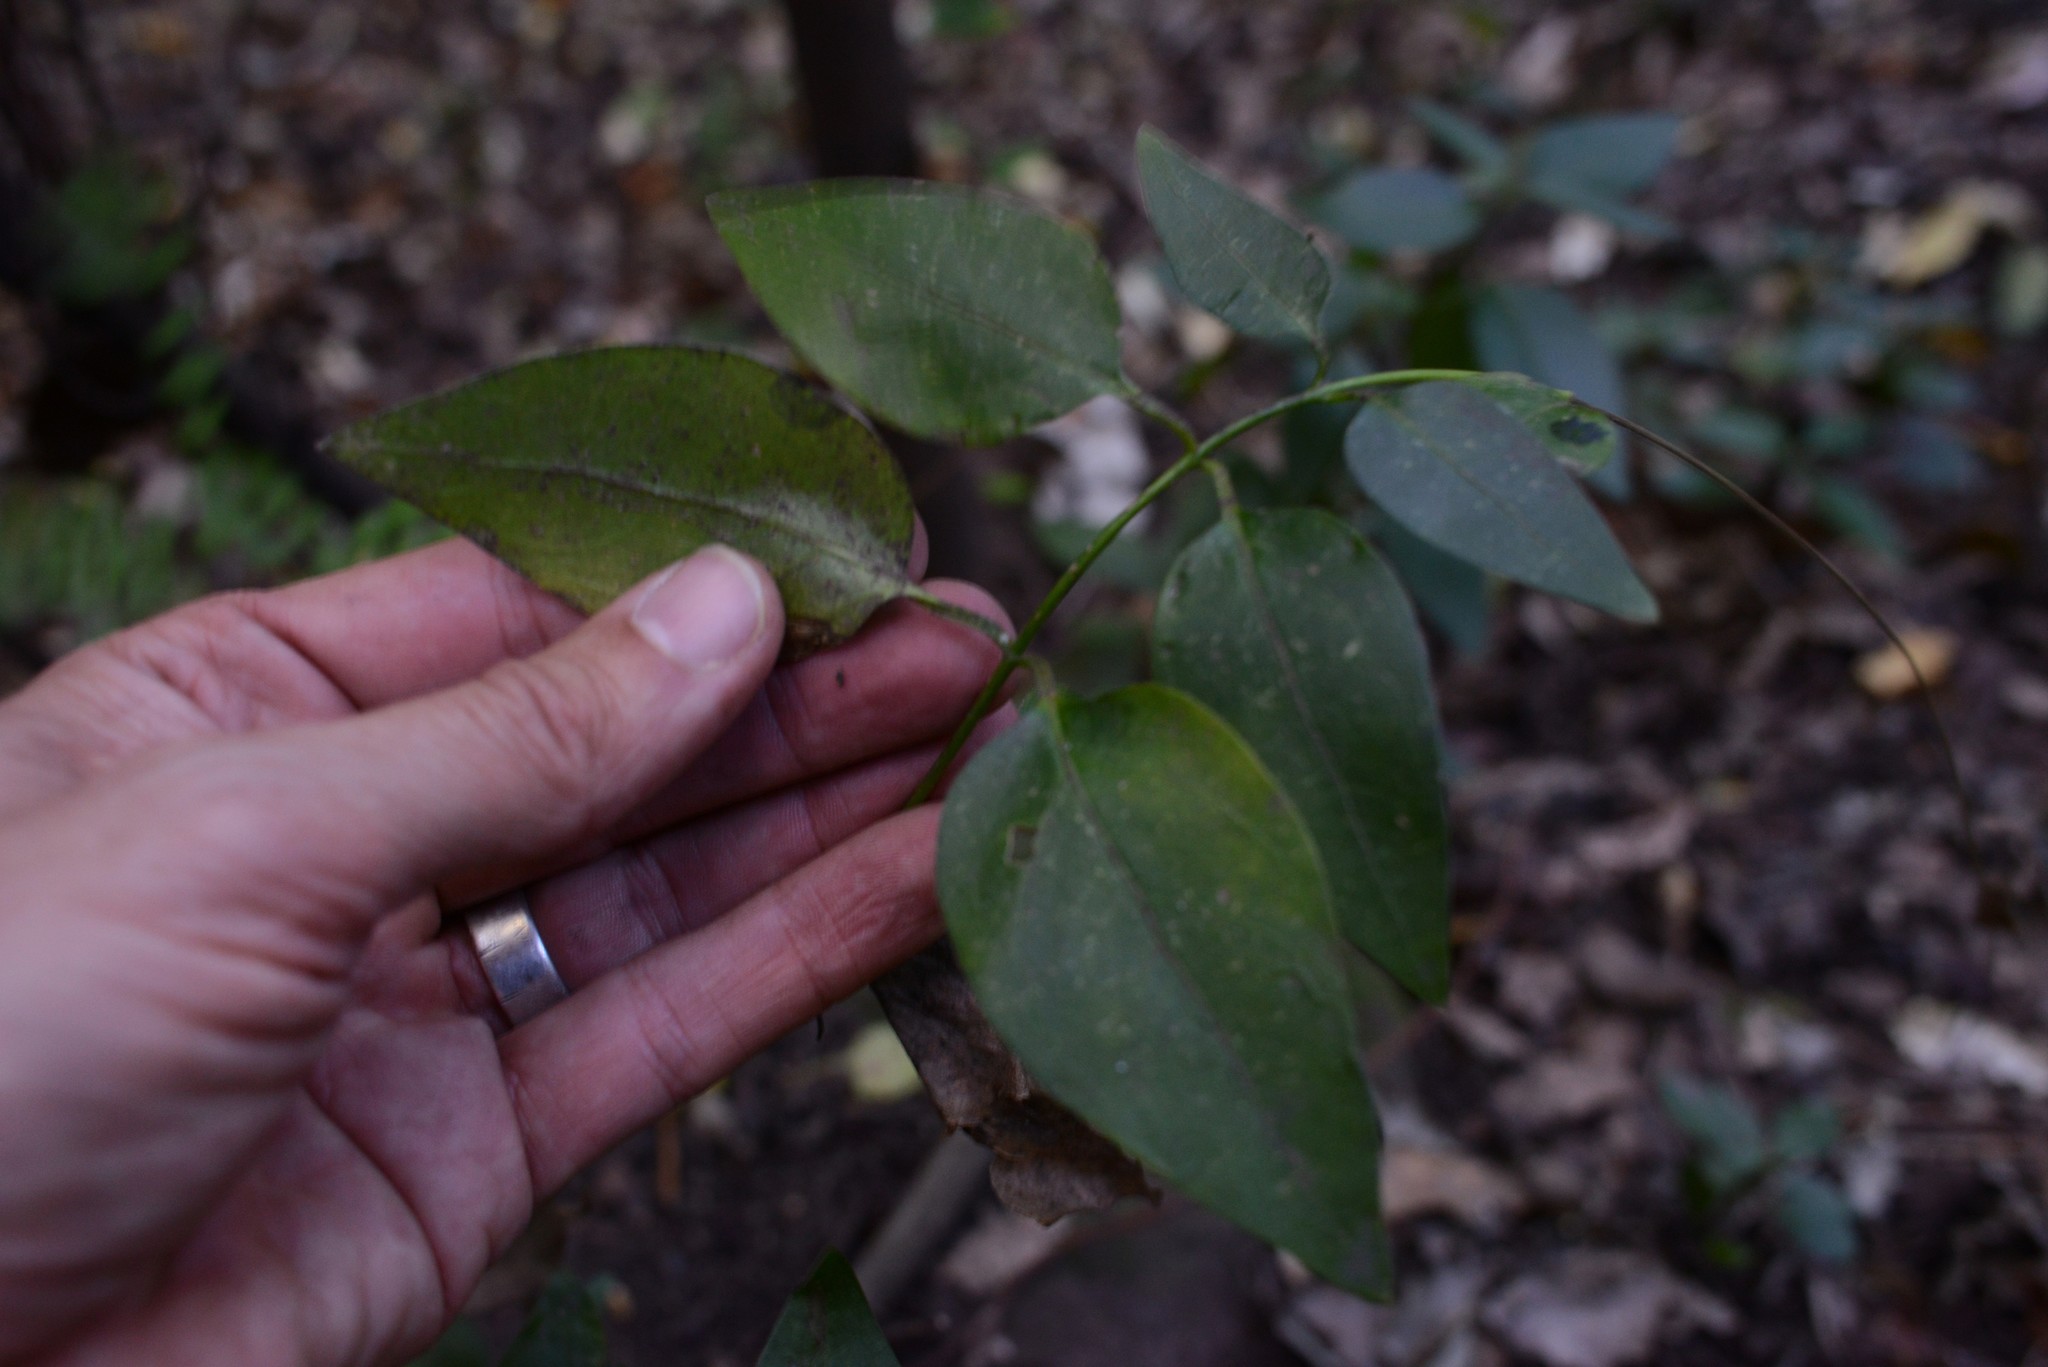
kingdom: Plantae
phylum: Tracheophyta
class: Magnoliopsida
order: Gentianales
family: Apocynaceae
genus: Vinca
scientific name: Vinca major
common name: Greater periwinkle
